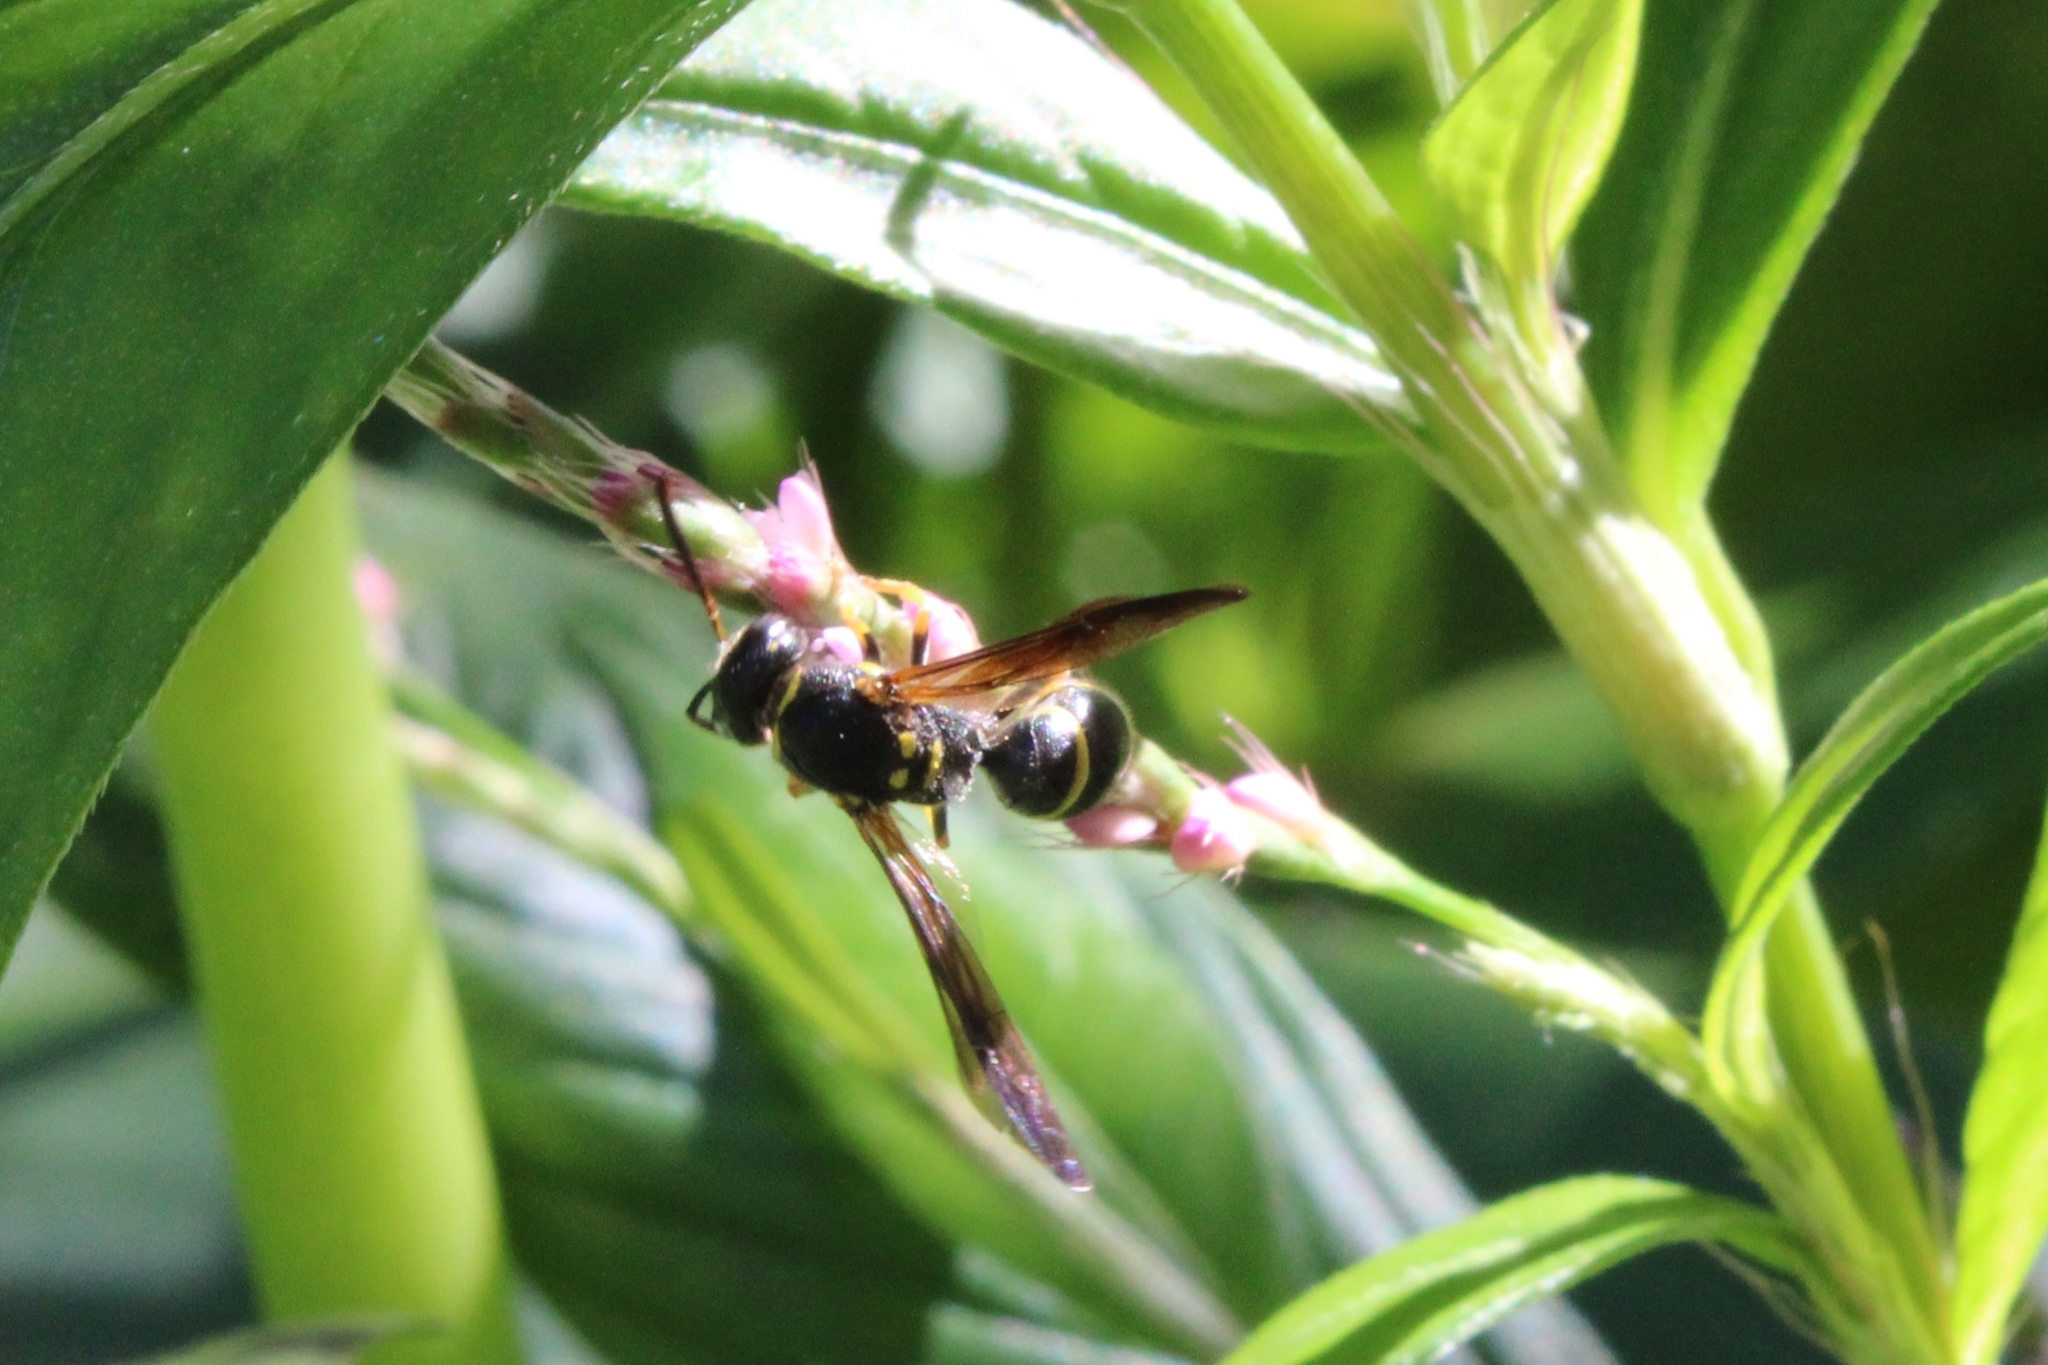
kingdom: Animalia
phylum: Arthropoda
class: Insecta
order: Hymenoptera
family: Vespidae
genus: Ancistrocerus
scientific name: Ancistrocerus adiabatus
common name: Bramble mason wasp
